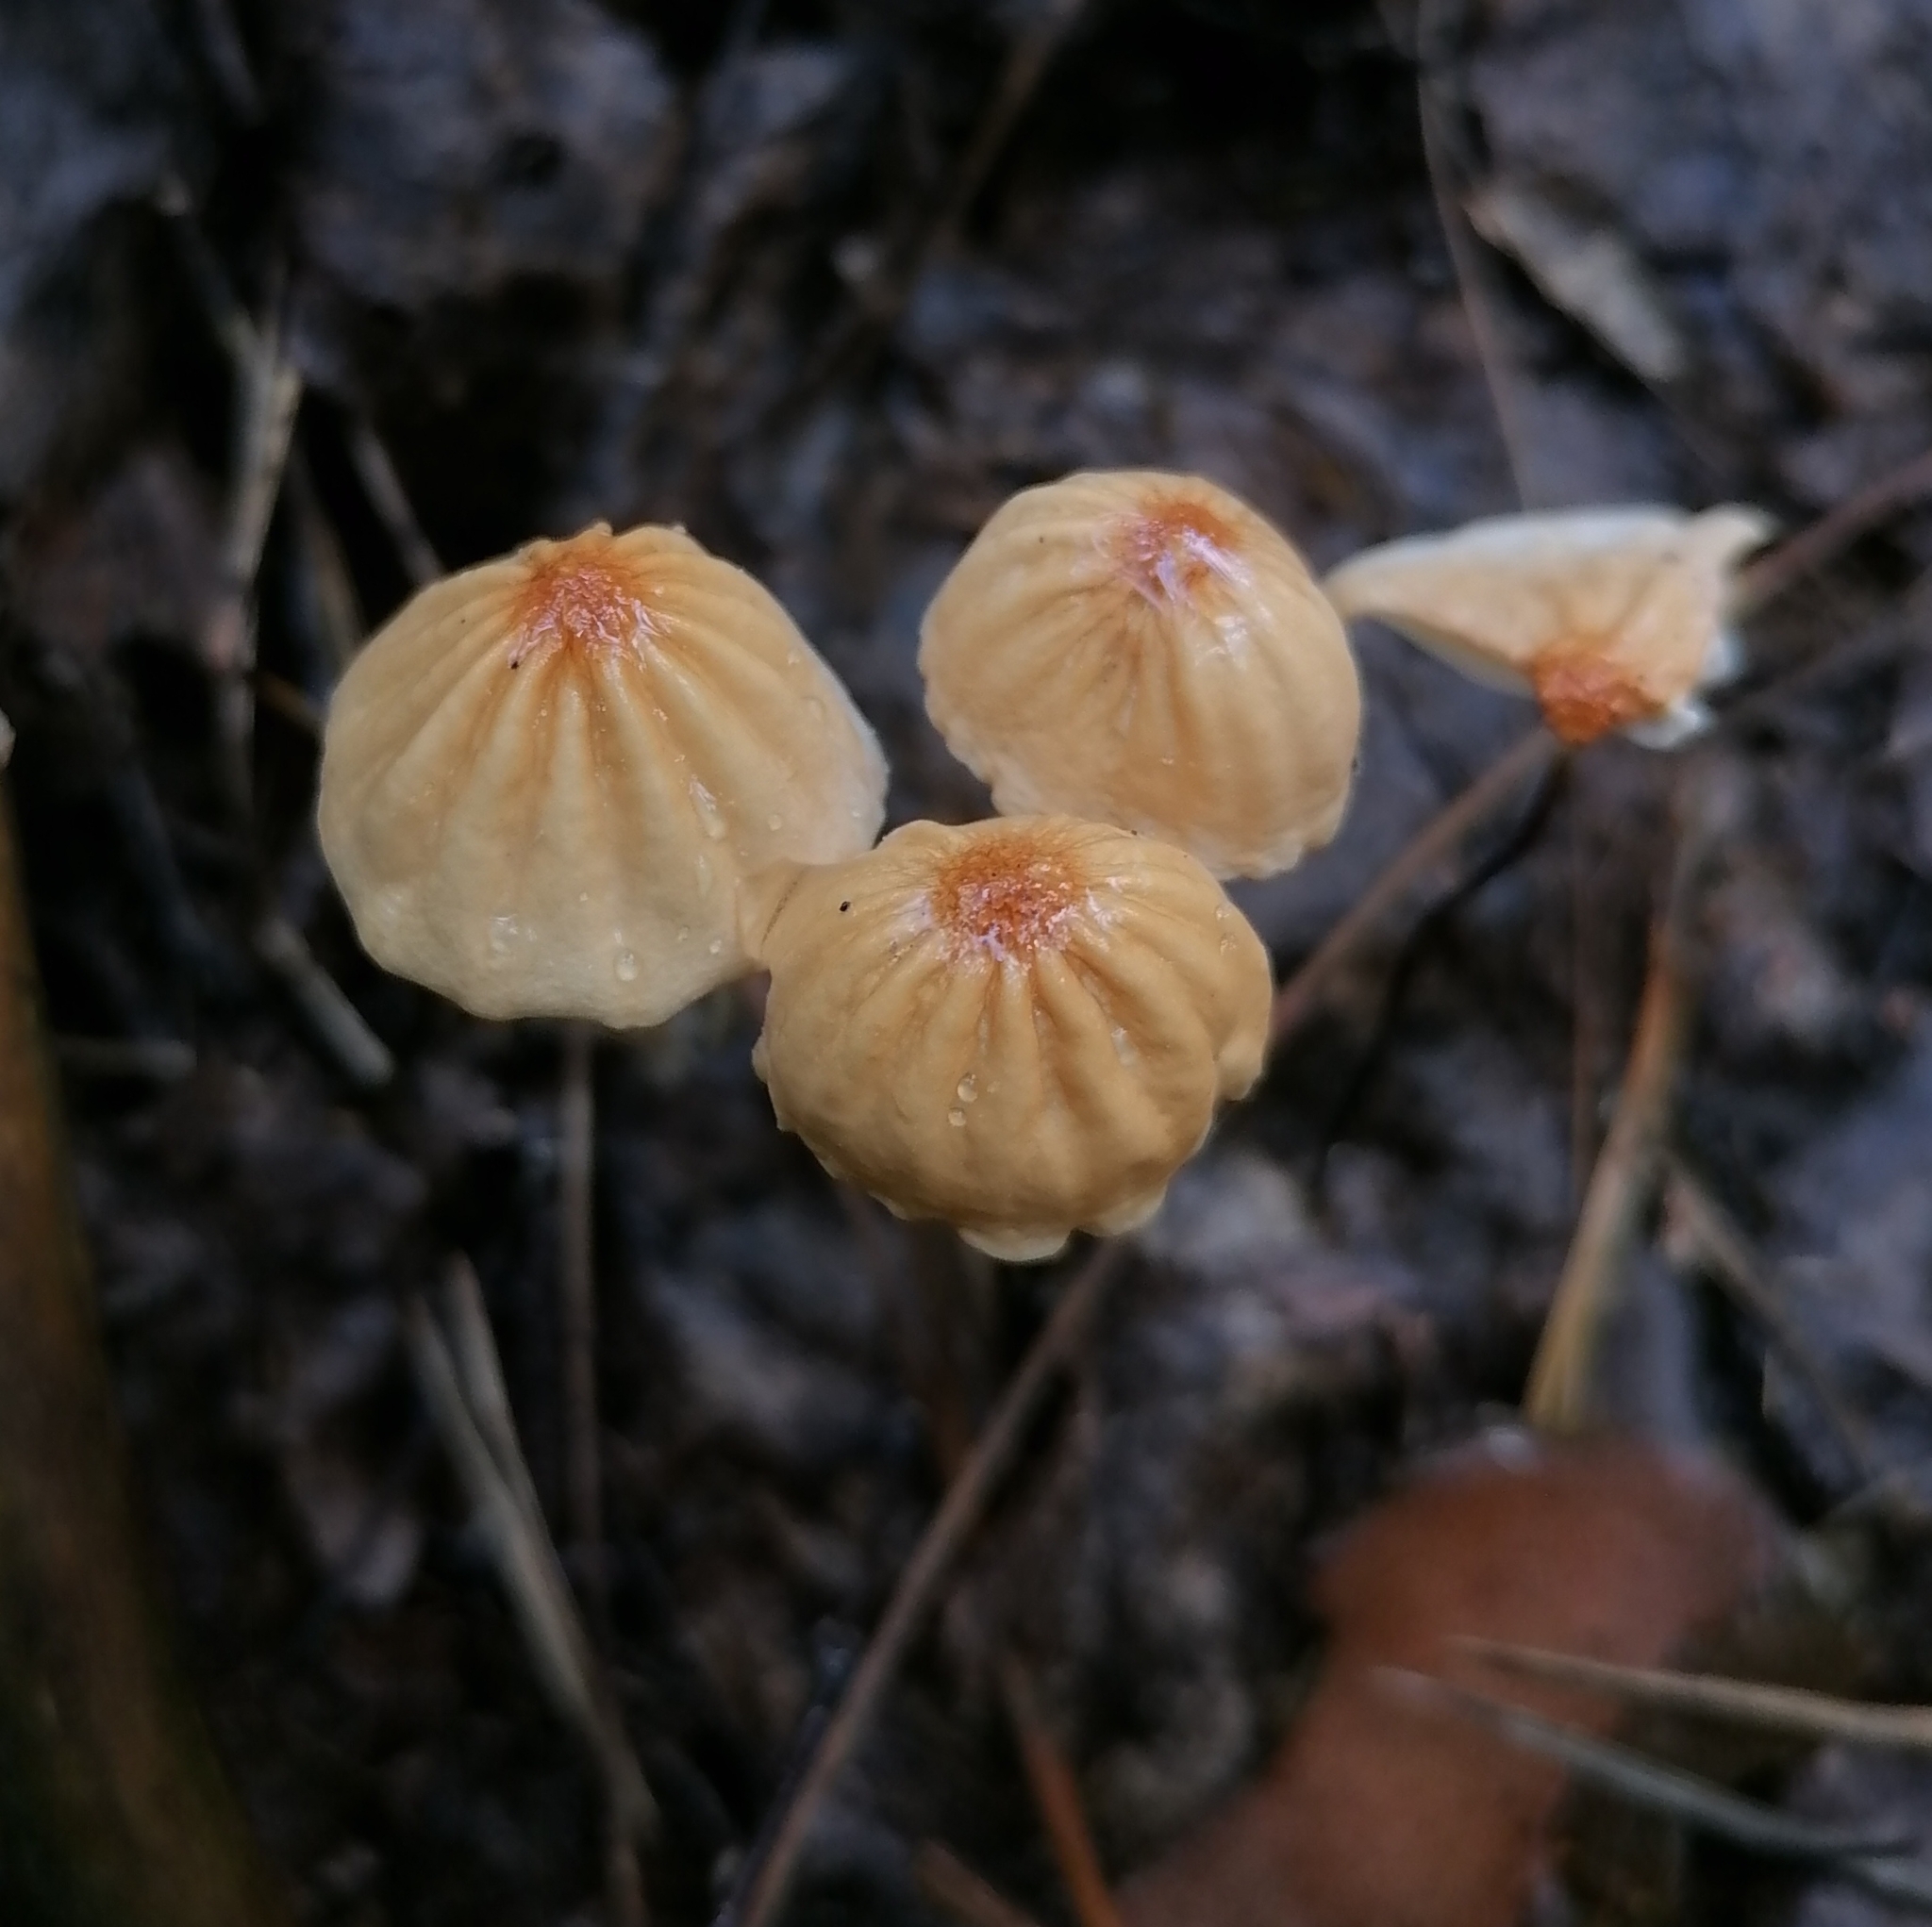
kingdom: Fungi
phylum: Basidiomycota
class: Agaricomycetes
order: Agaricales
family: Marasmiaceae
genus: Marasmius
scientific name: Marasmius siccus
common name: Orange pinwheel
